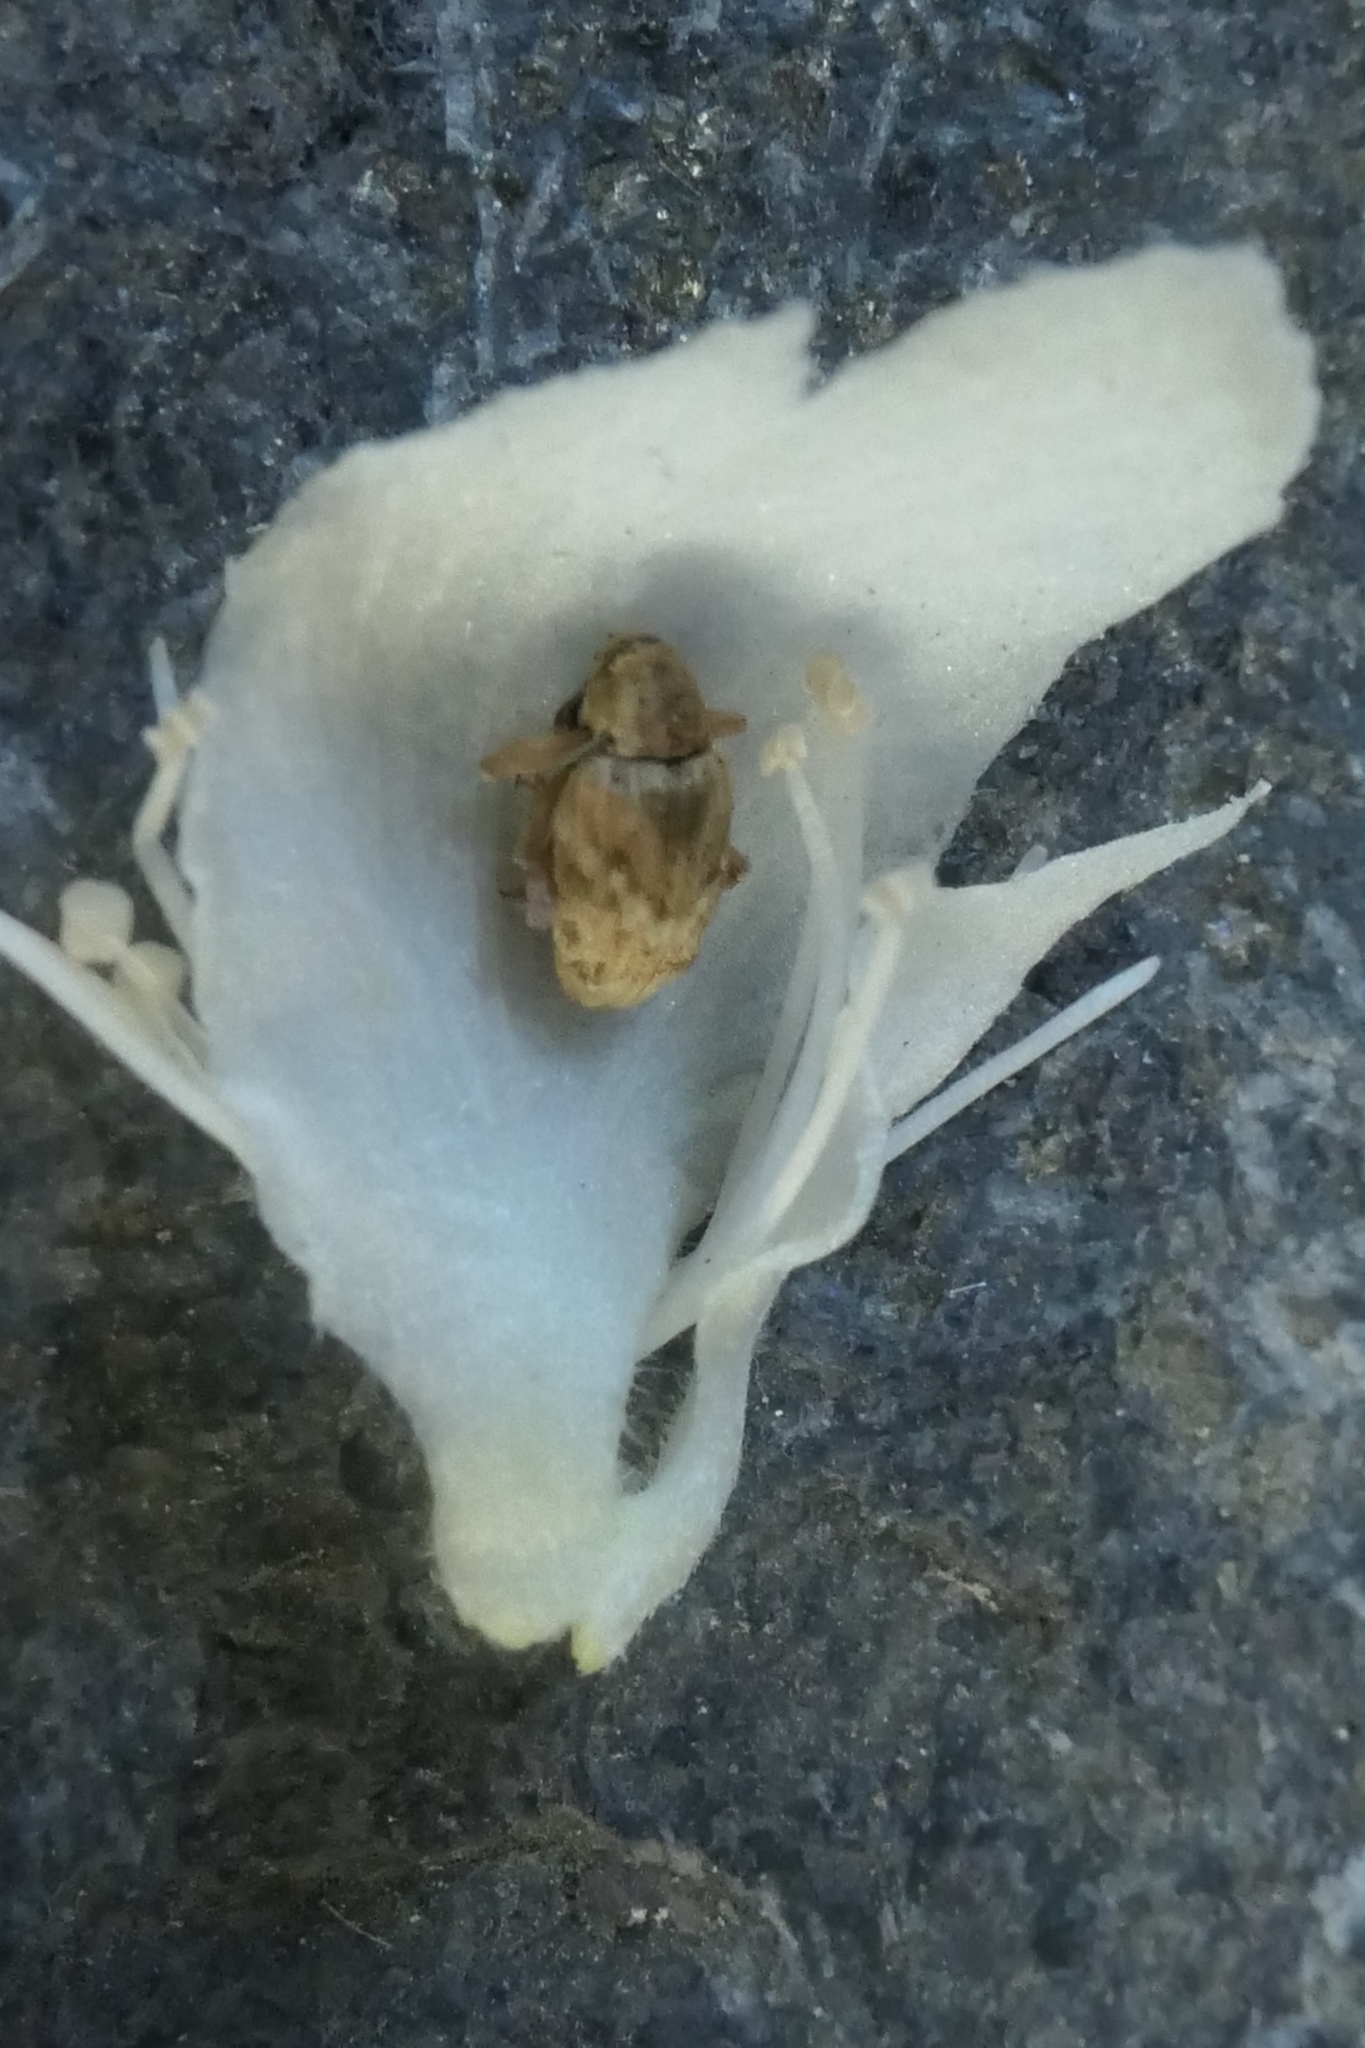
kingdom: Animalia
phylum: Arthropoda
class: Insecta
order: Coleoptera
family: Curculionidae
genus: Aneuma
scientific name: Aneuma compta
